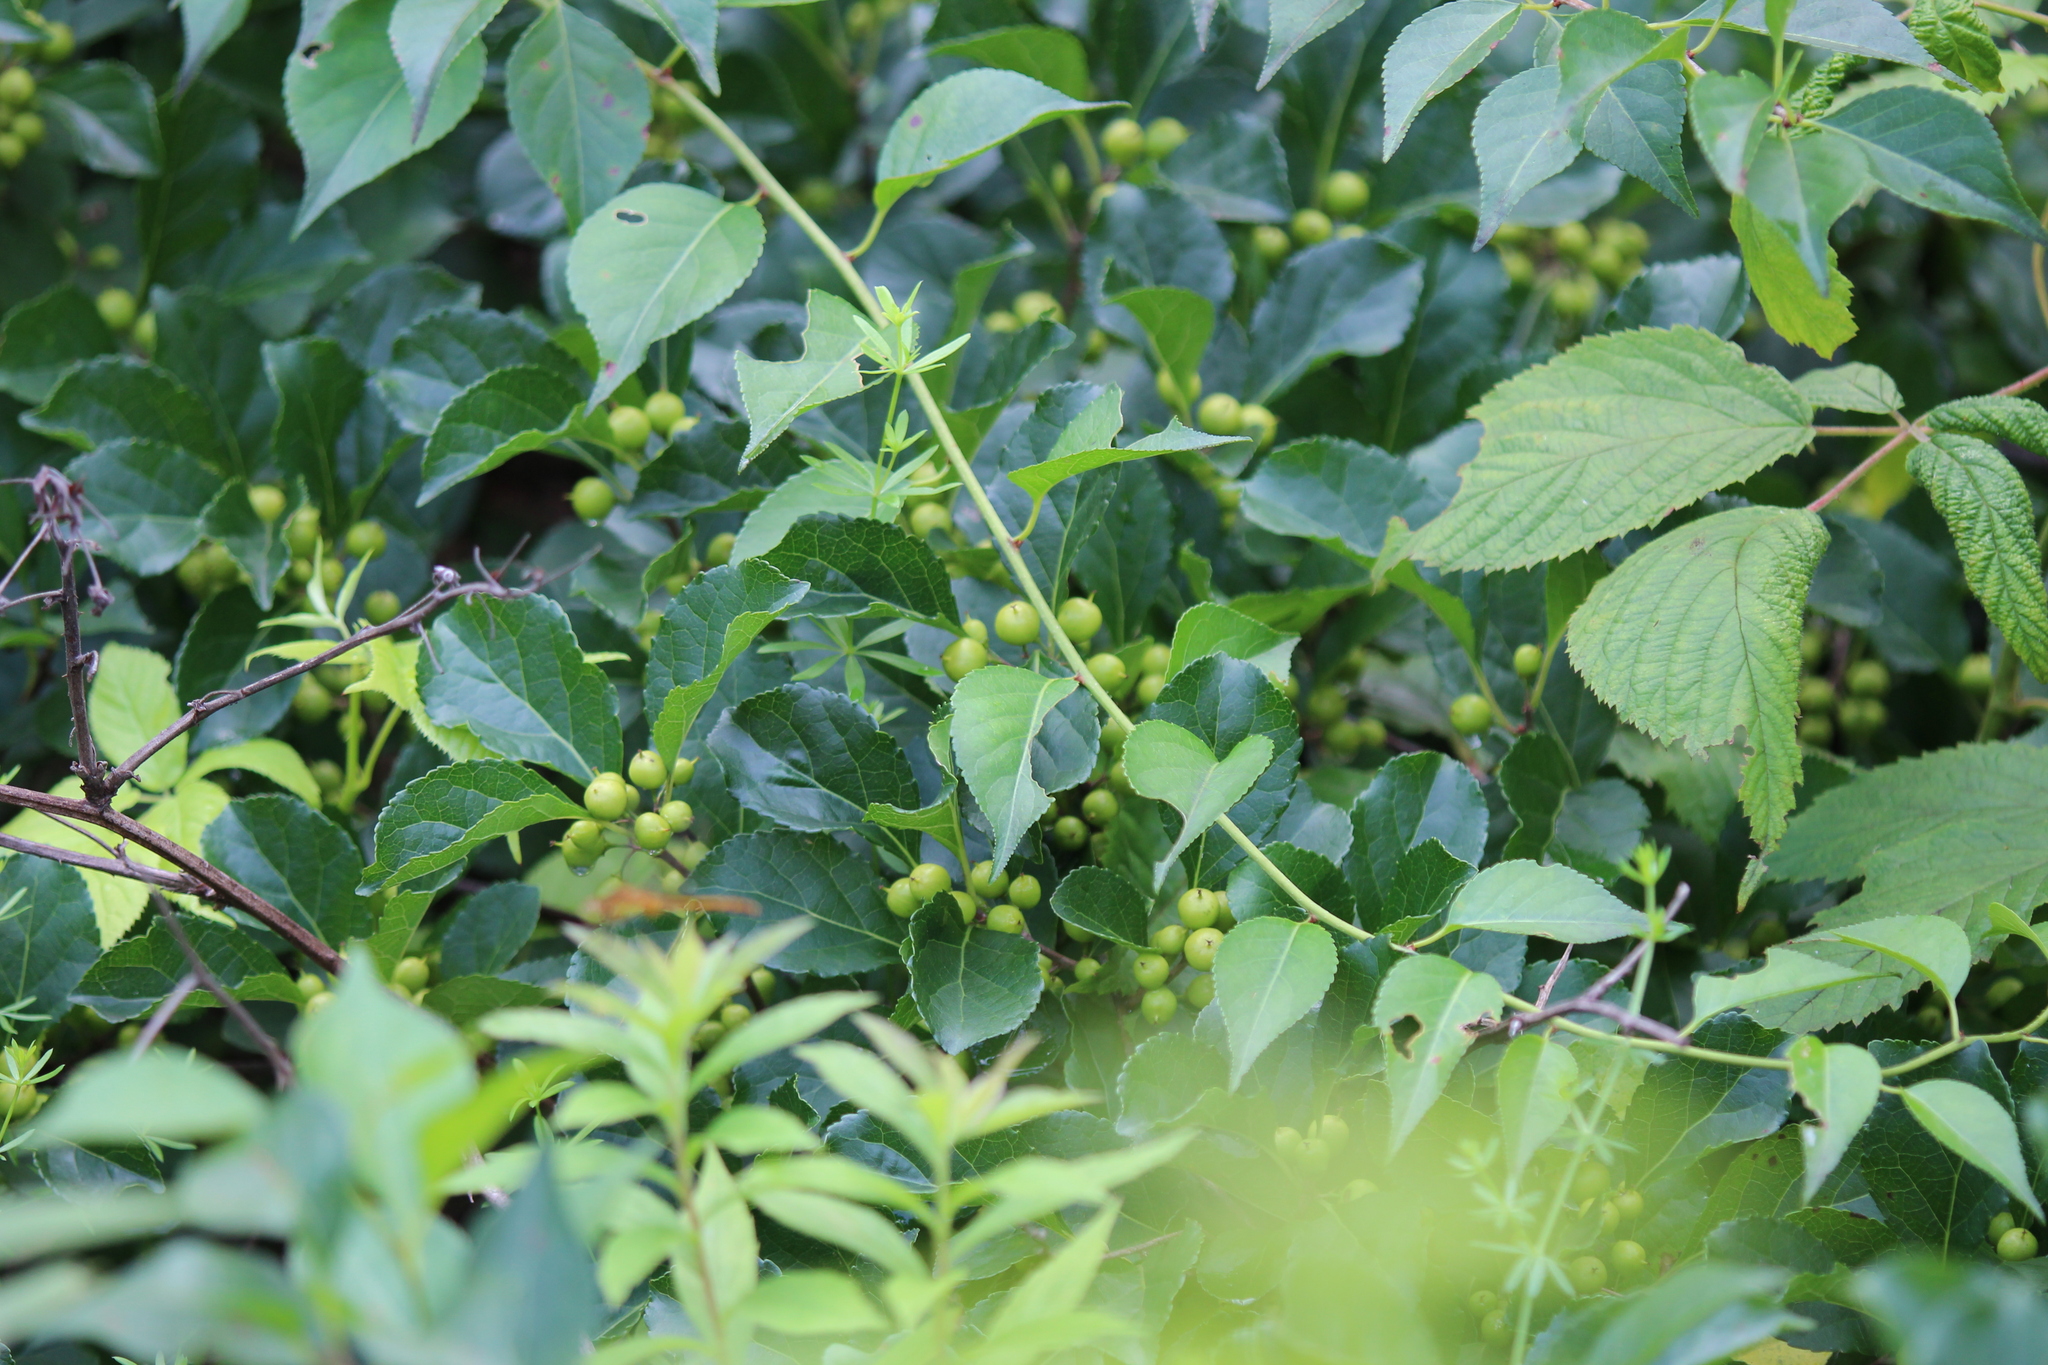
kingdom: Plantae
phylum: Tracheophyta
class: Magnoliopsida
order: Celastrales
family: Celastraceae
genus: Celastrus
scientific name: Celastrus orbiculatus
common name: Oriental bittersweet
